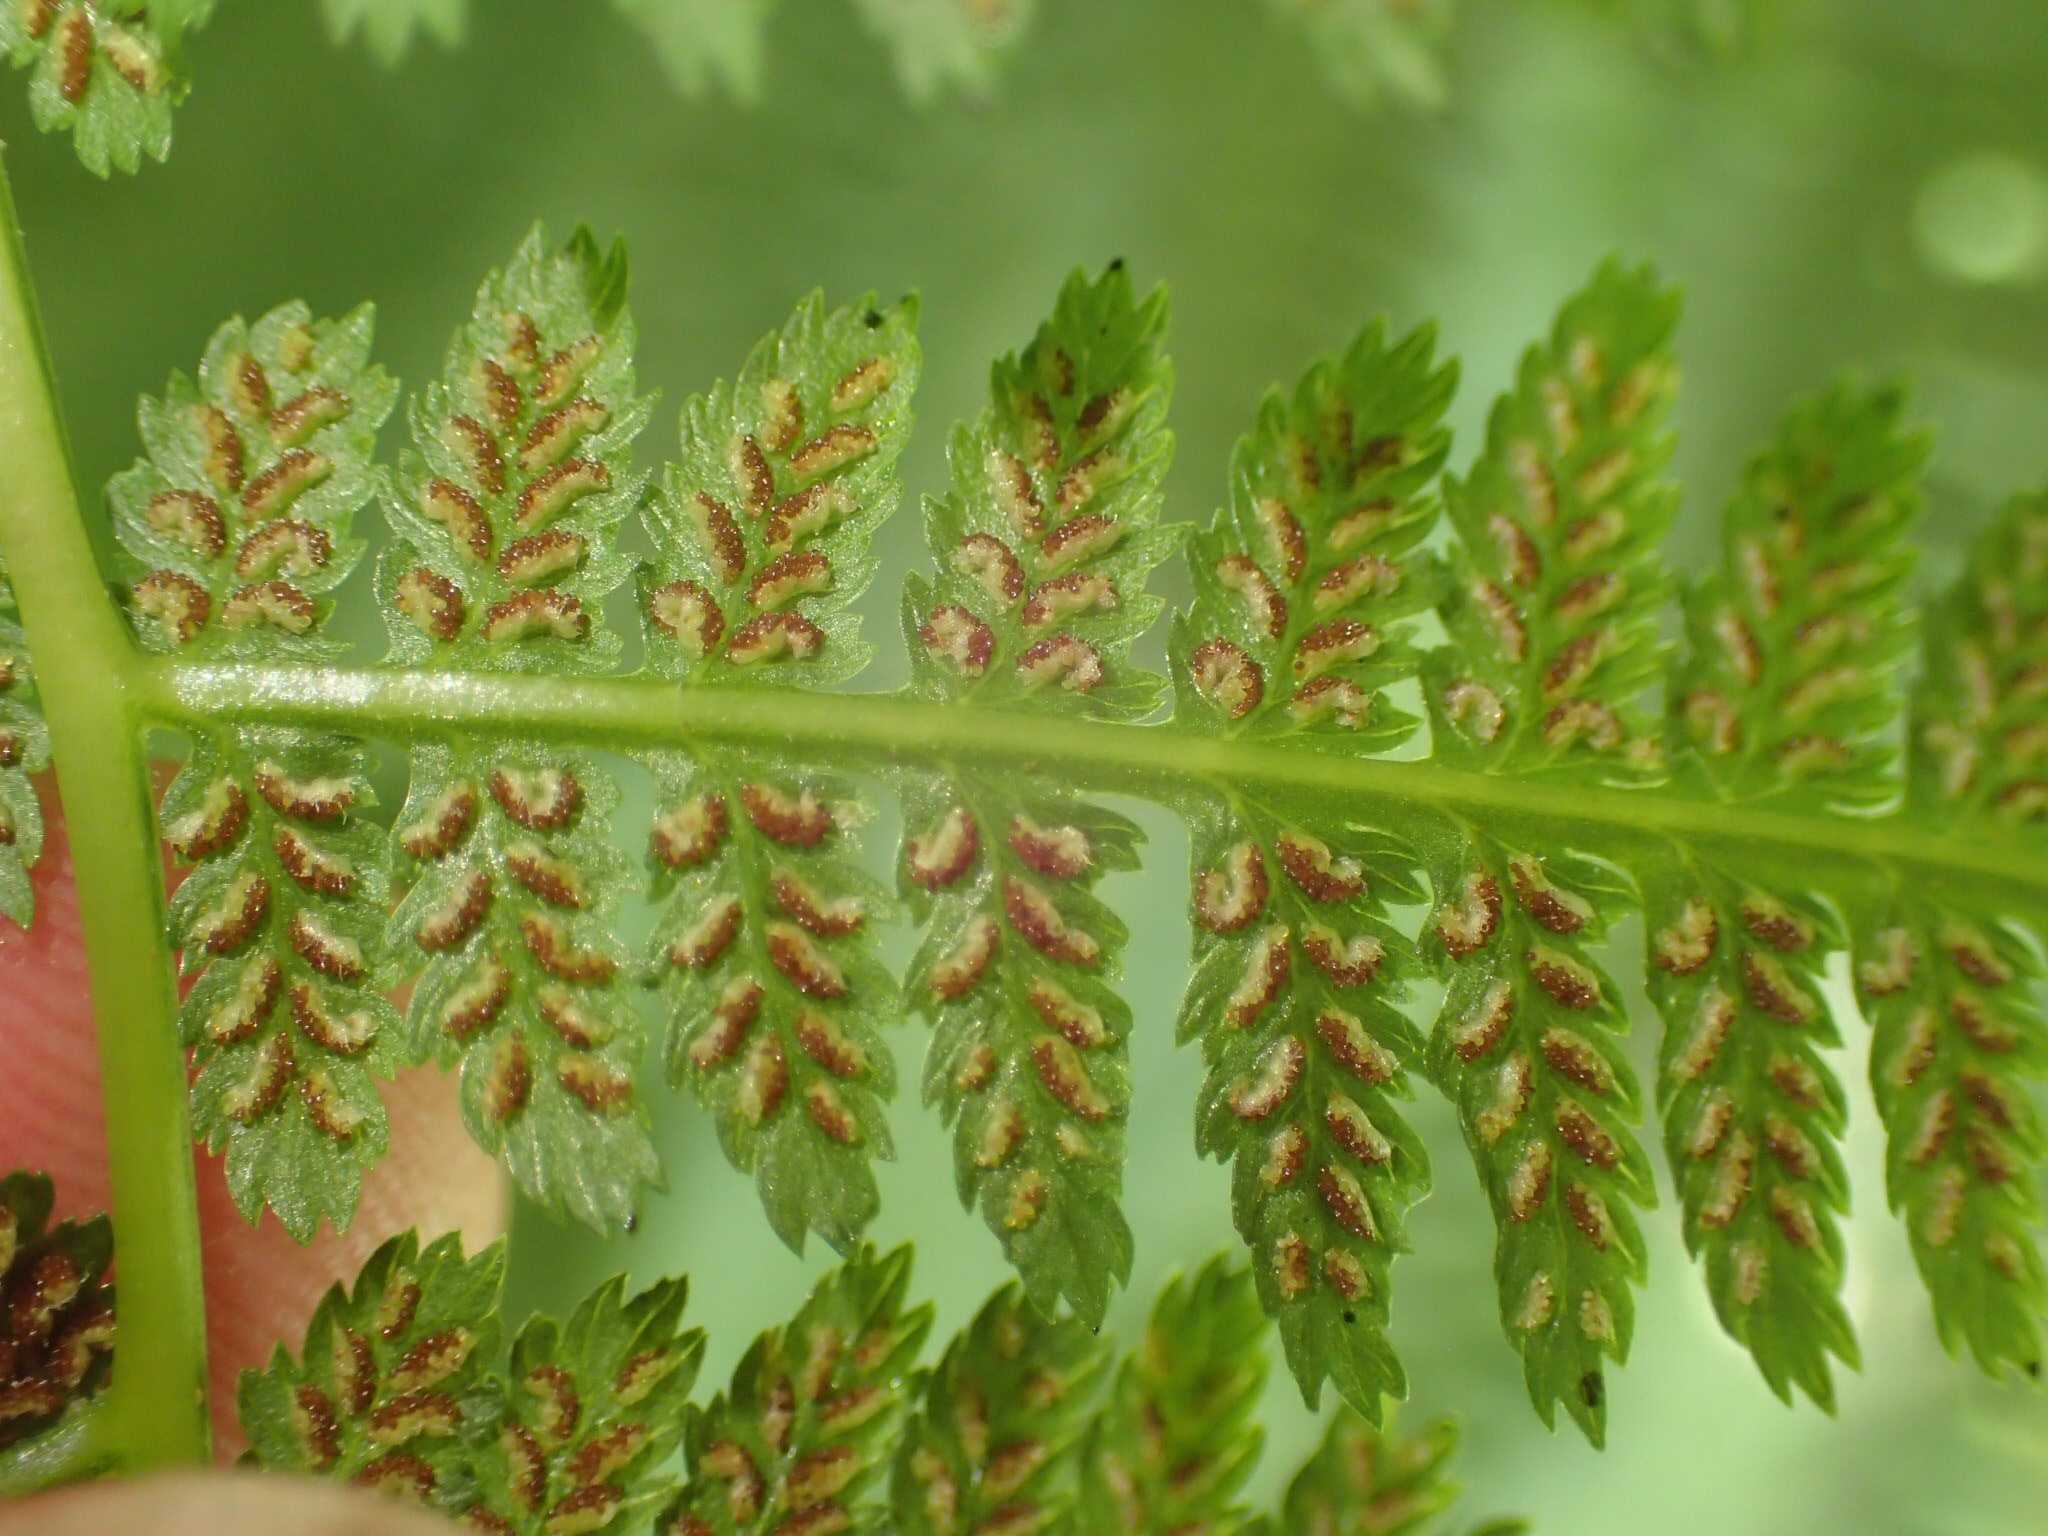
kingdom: Plantae
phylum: Tracheophyta
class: Polypodiopsida
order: Polypodiales
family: Athyriaceae
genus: Athyrium
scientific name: Athyrium angustum
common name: Northern lady fern
